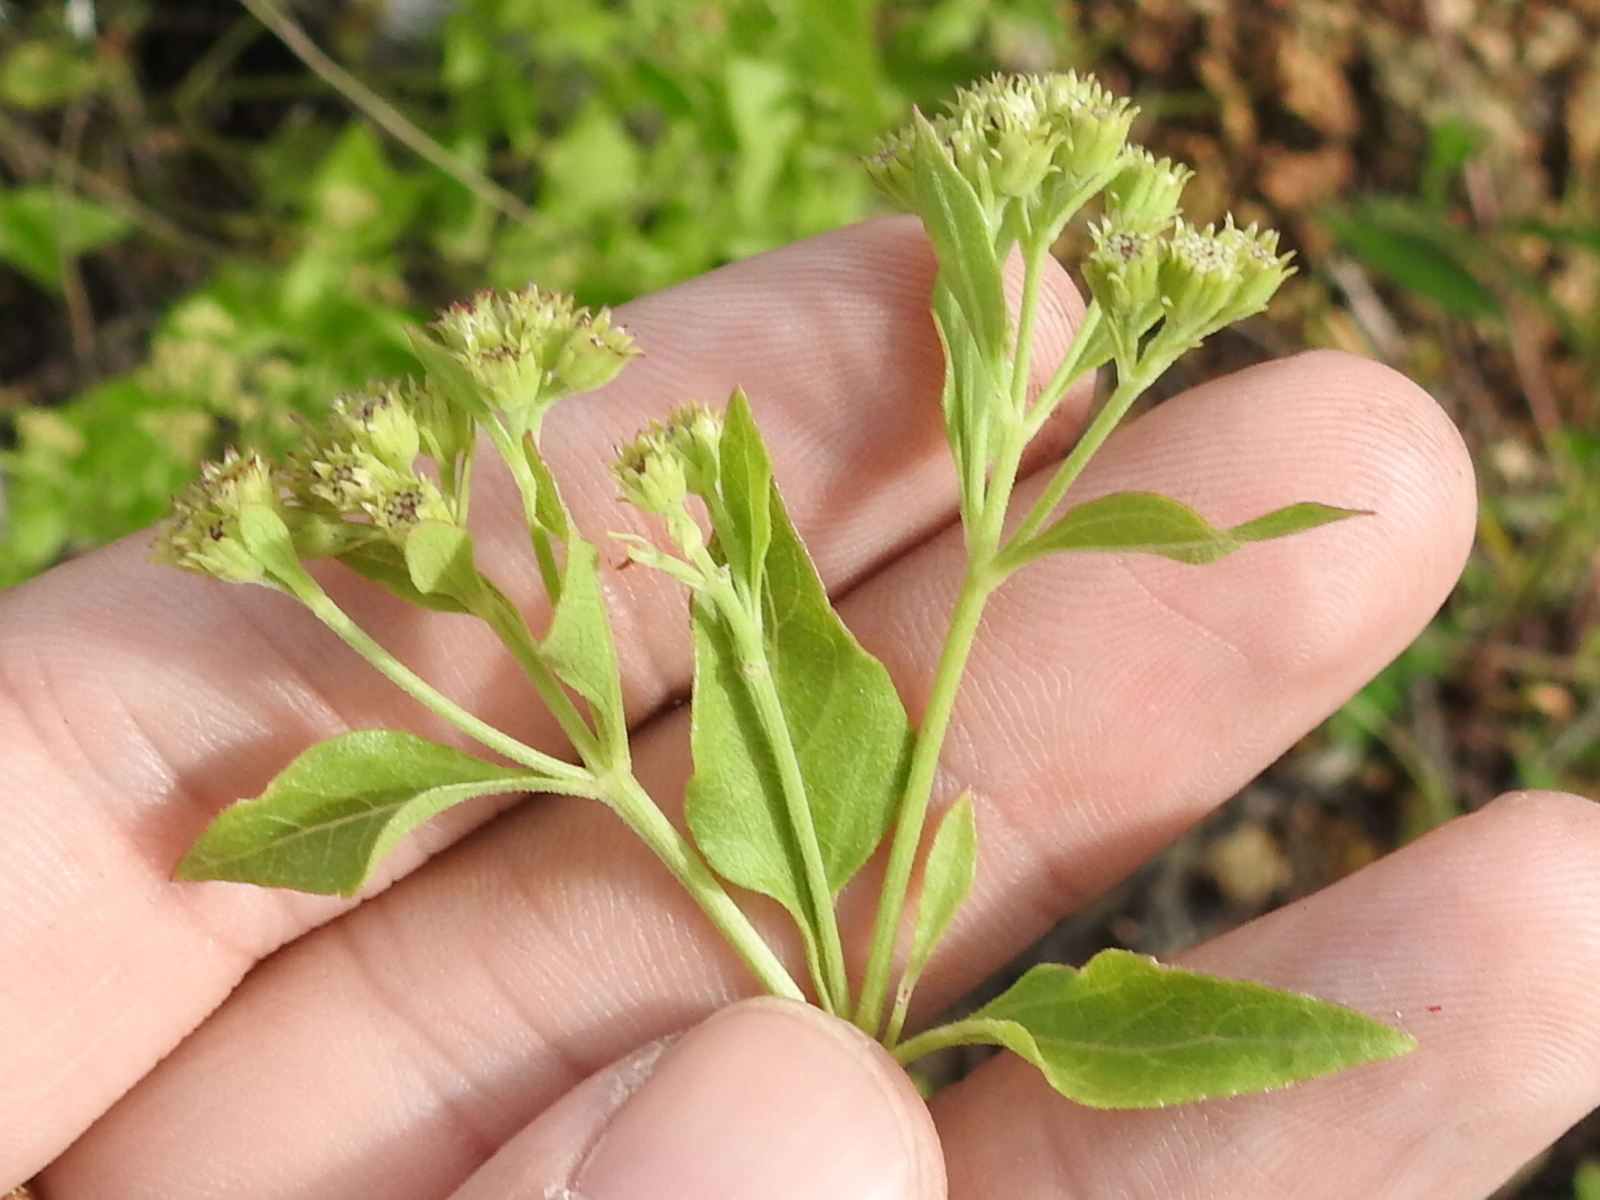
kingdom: Plantae
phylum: Tracheophyta
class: Magnoliopsida
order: Asterales
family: Asteraceae
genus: Ageratina
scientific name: Ageratina herbacea
